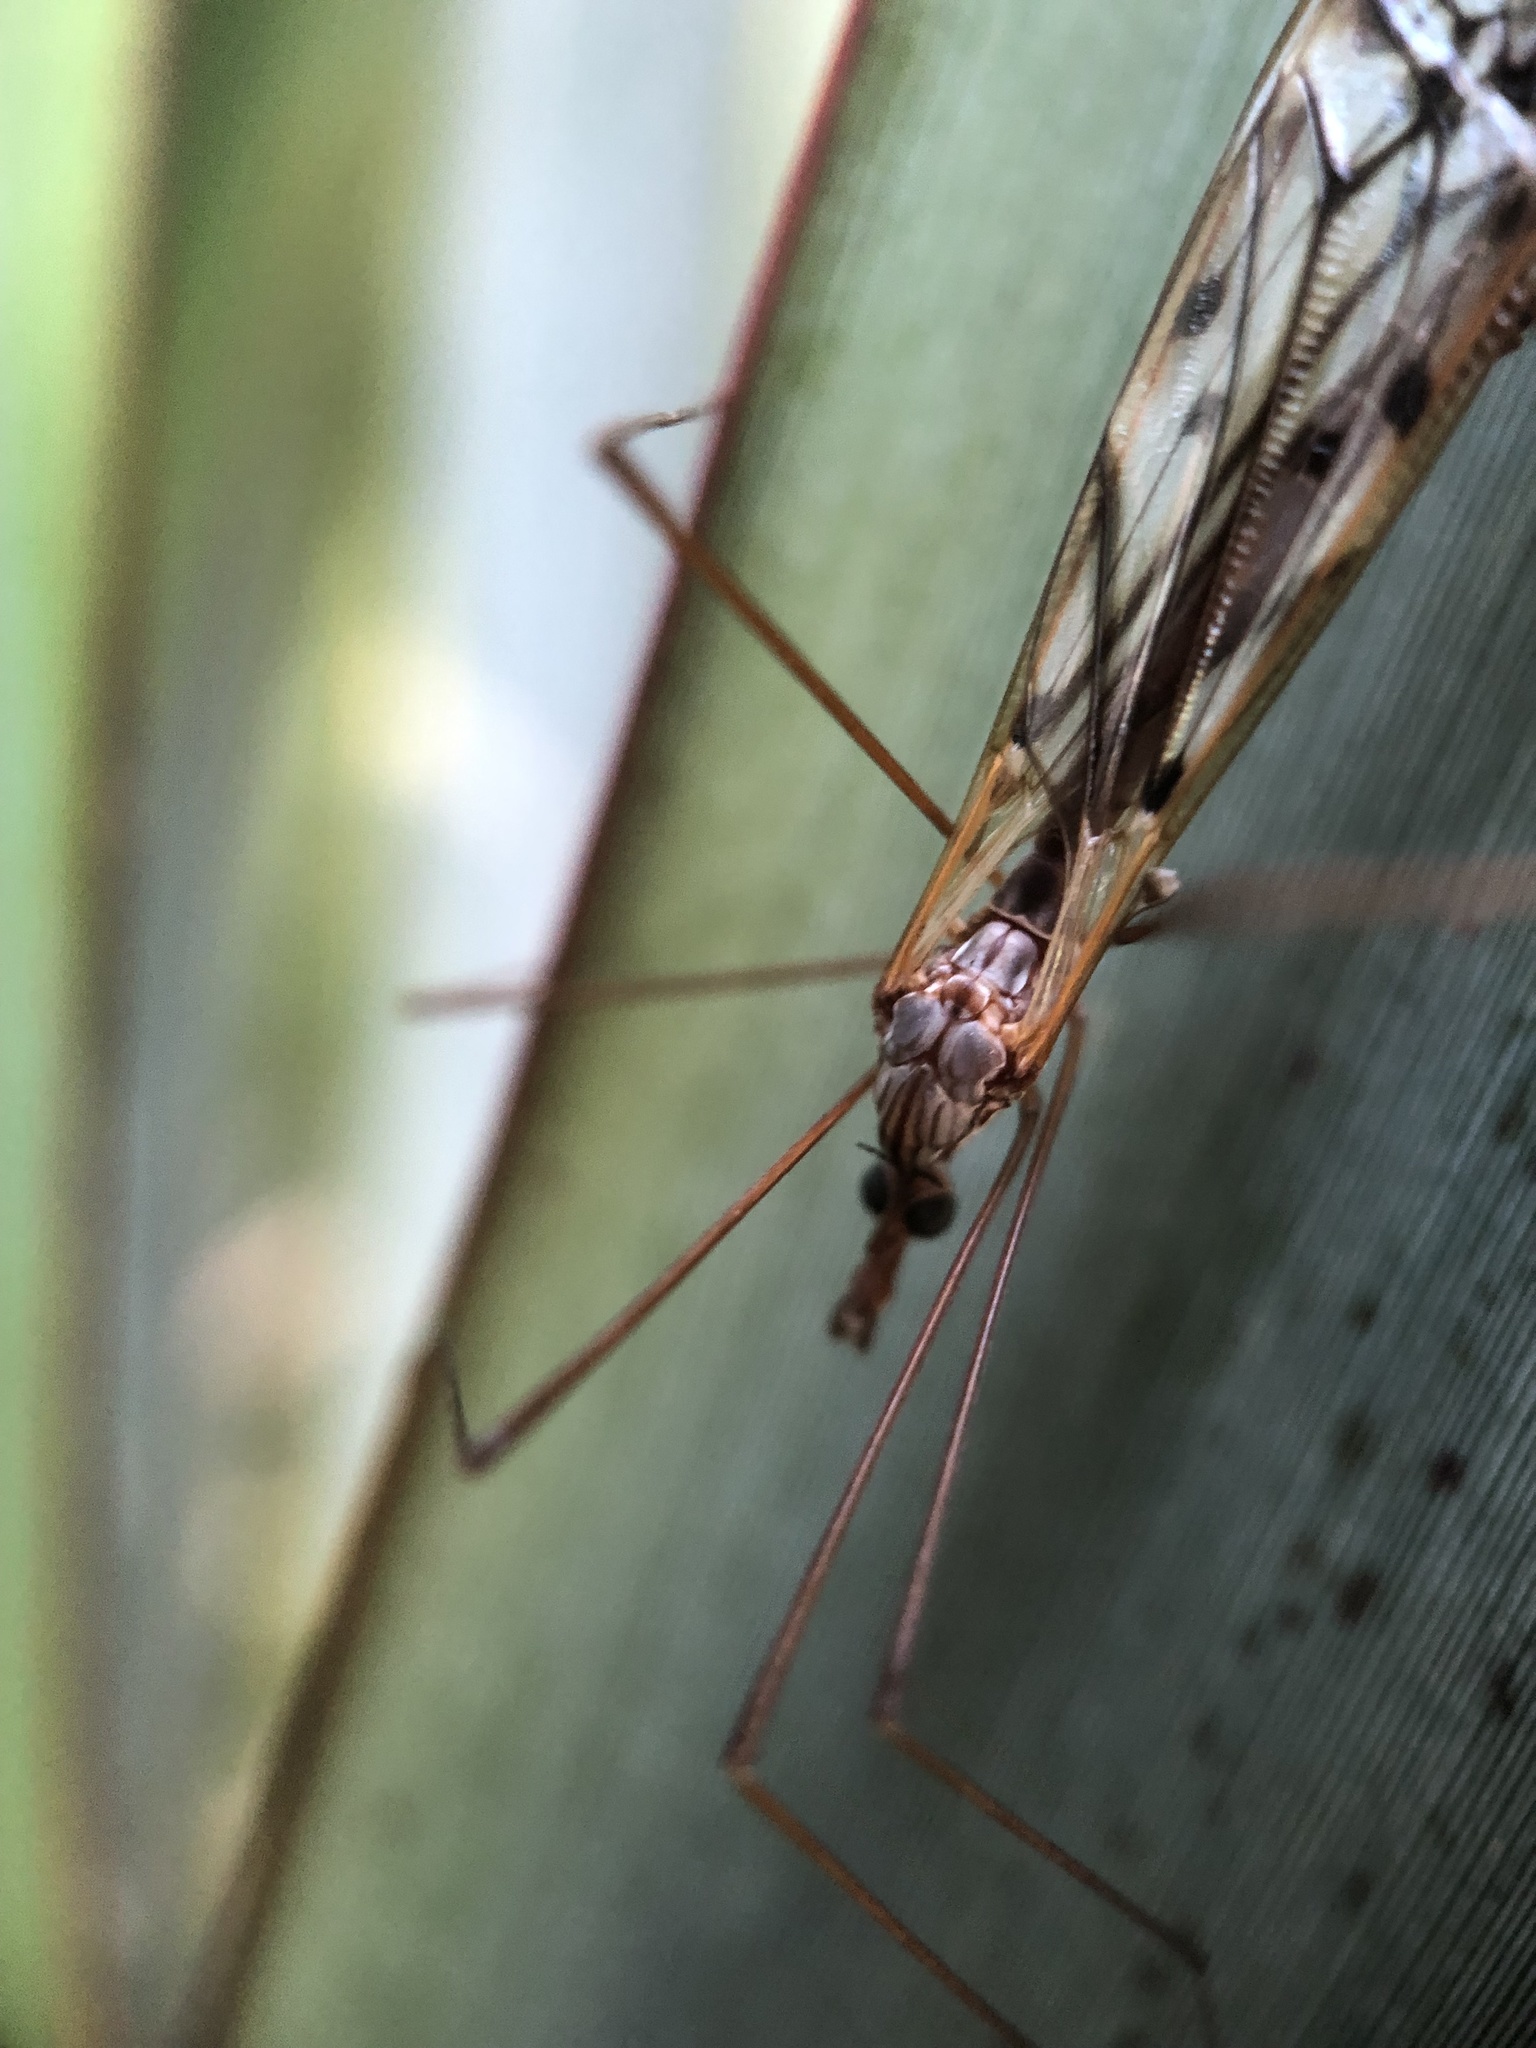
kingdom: Animalia
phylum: Arthropoda
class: Insecta
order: Diptera
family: Tipulidae
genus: Zelandotipula
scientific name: Zelandotipula novarae
